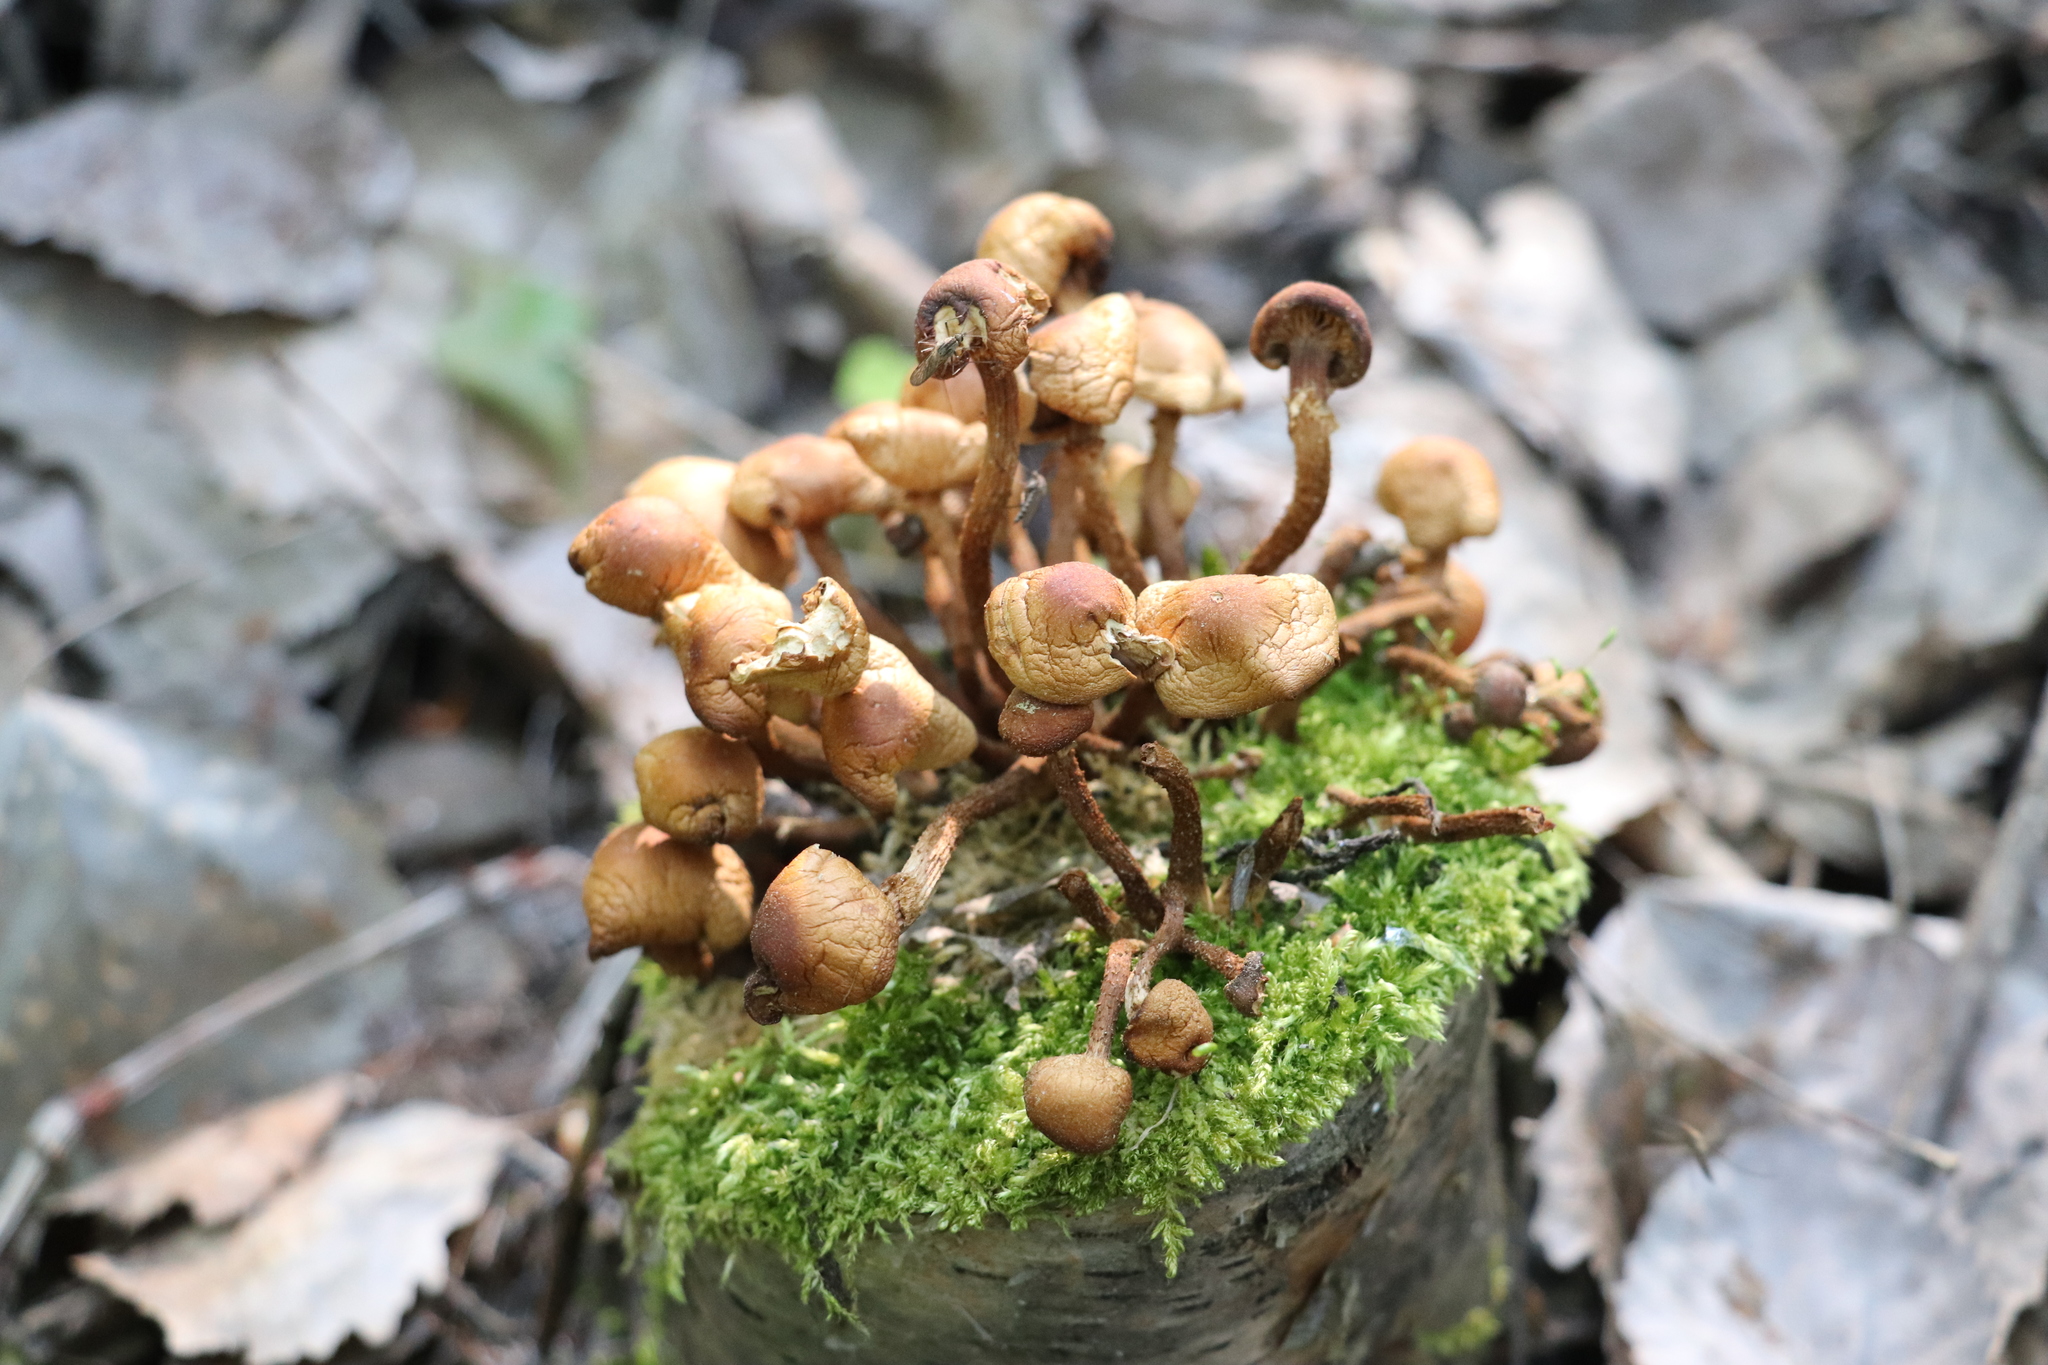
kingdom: Fungi
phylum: Basidiomycota
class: Agaricomycetes
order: Agaricales
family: Strophariaceae
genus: Kuehneromyces
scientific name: Kuehneromyces mutabilis
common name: Sheathed woodtuft
